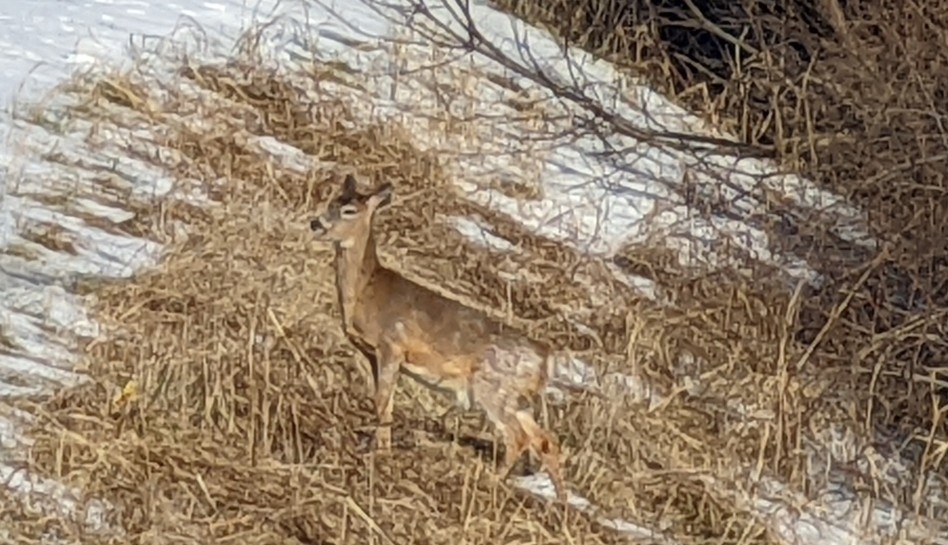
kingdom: Animalia
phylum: Chordata
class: Mammalia
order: Artiodactyla
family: Cervidae
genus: Odocoileus
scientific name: Odocoileus virginianus
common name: White-tailed deer
